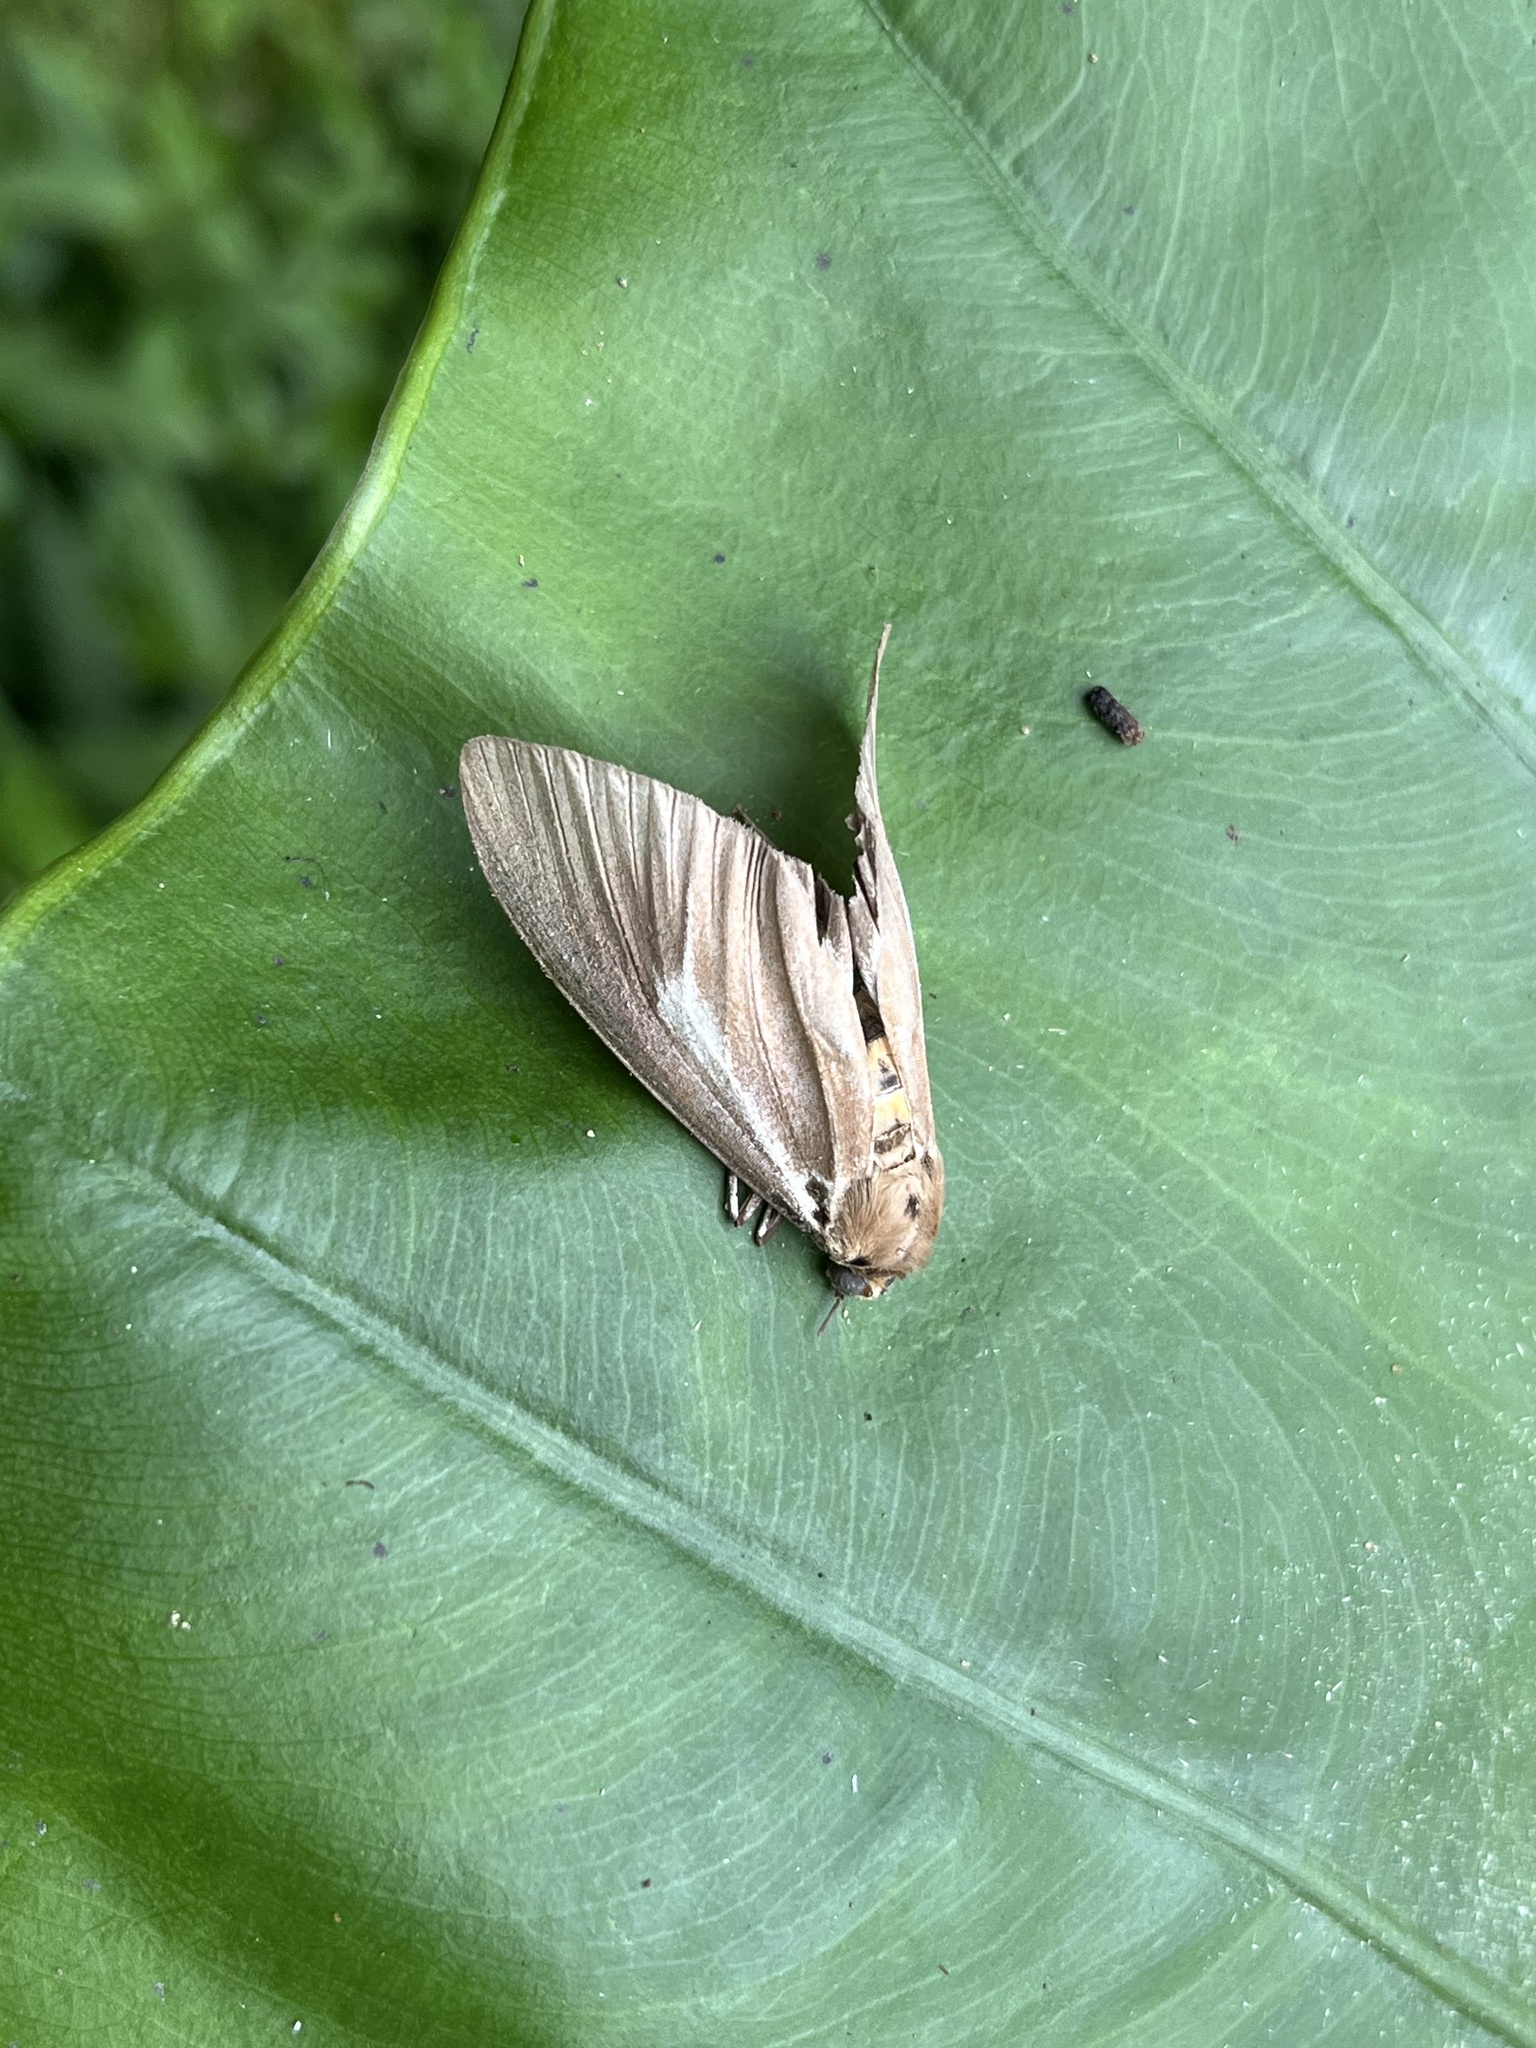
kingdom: Animalia
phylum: Arthropoda
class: Insecta
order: Lepidoptera
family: Erebidae
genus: Asota
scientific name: Asota heliconia
